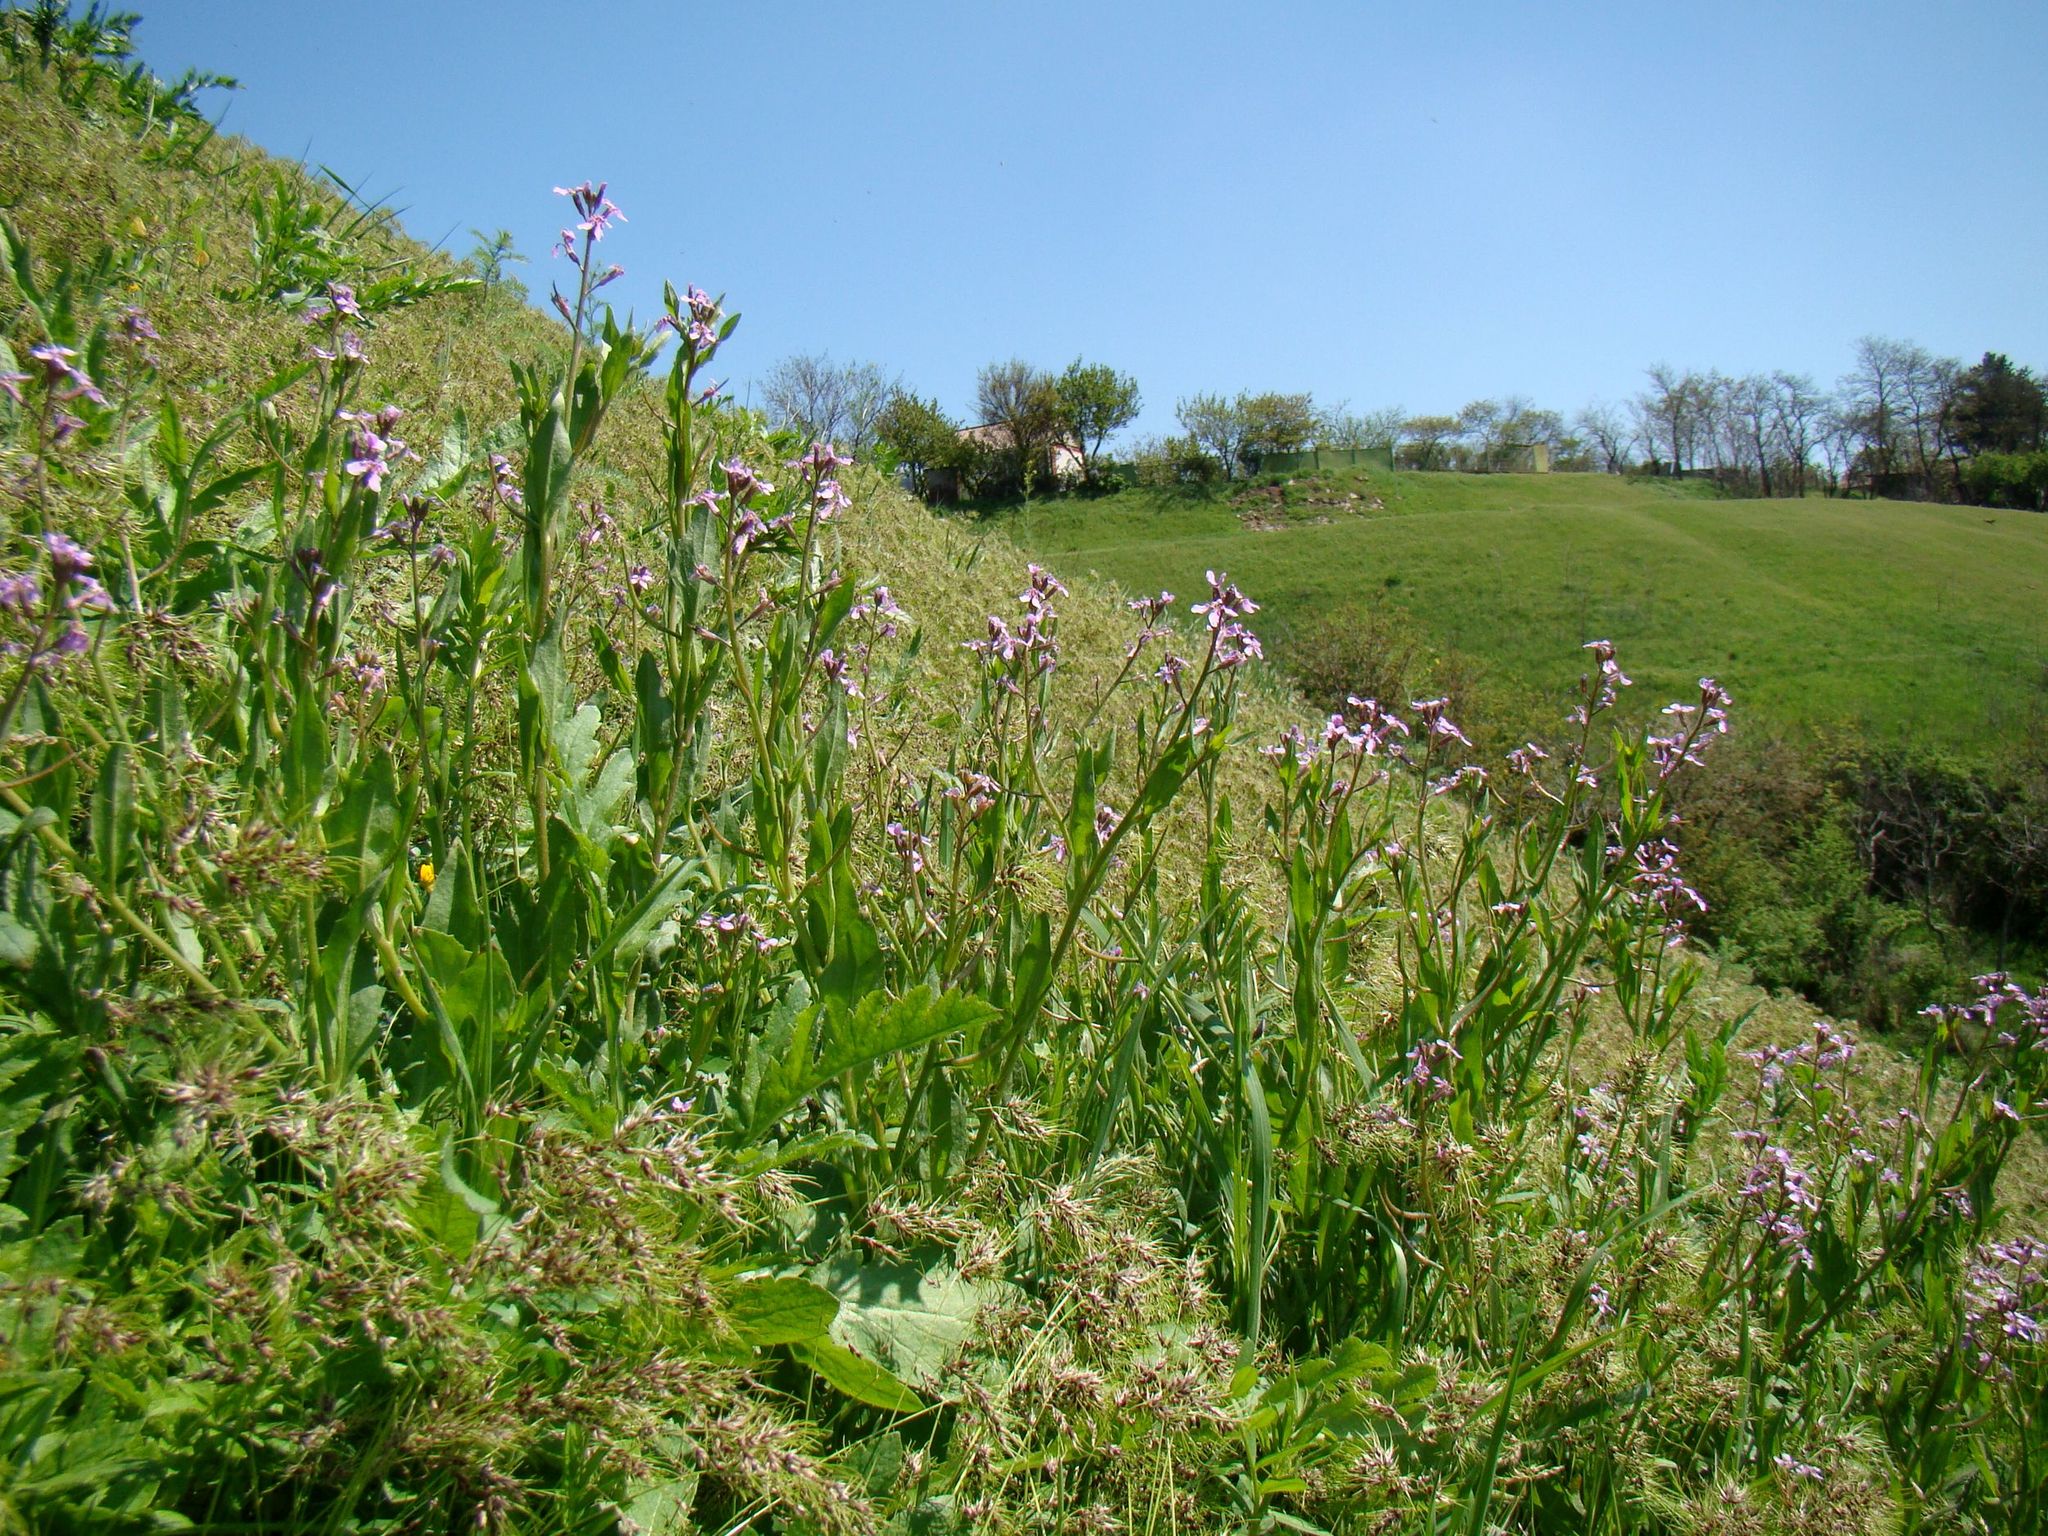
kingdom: Plantae
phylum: Tracheophyta
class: Magnoliopsida
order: Brassicales
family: Brassicaceae
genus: Chorispora
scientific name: Chorispora tenella
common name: Crossflower
